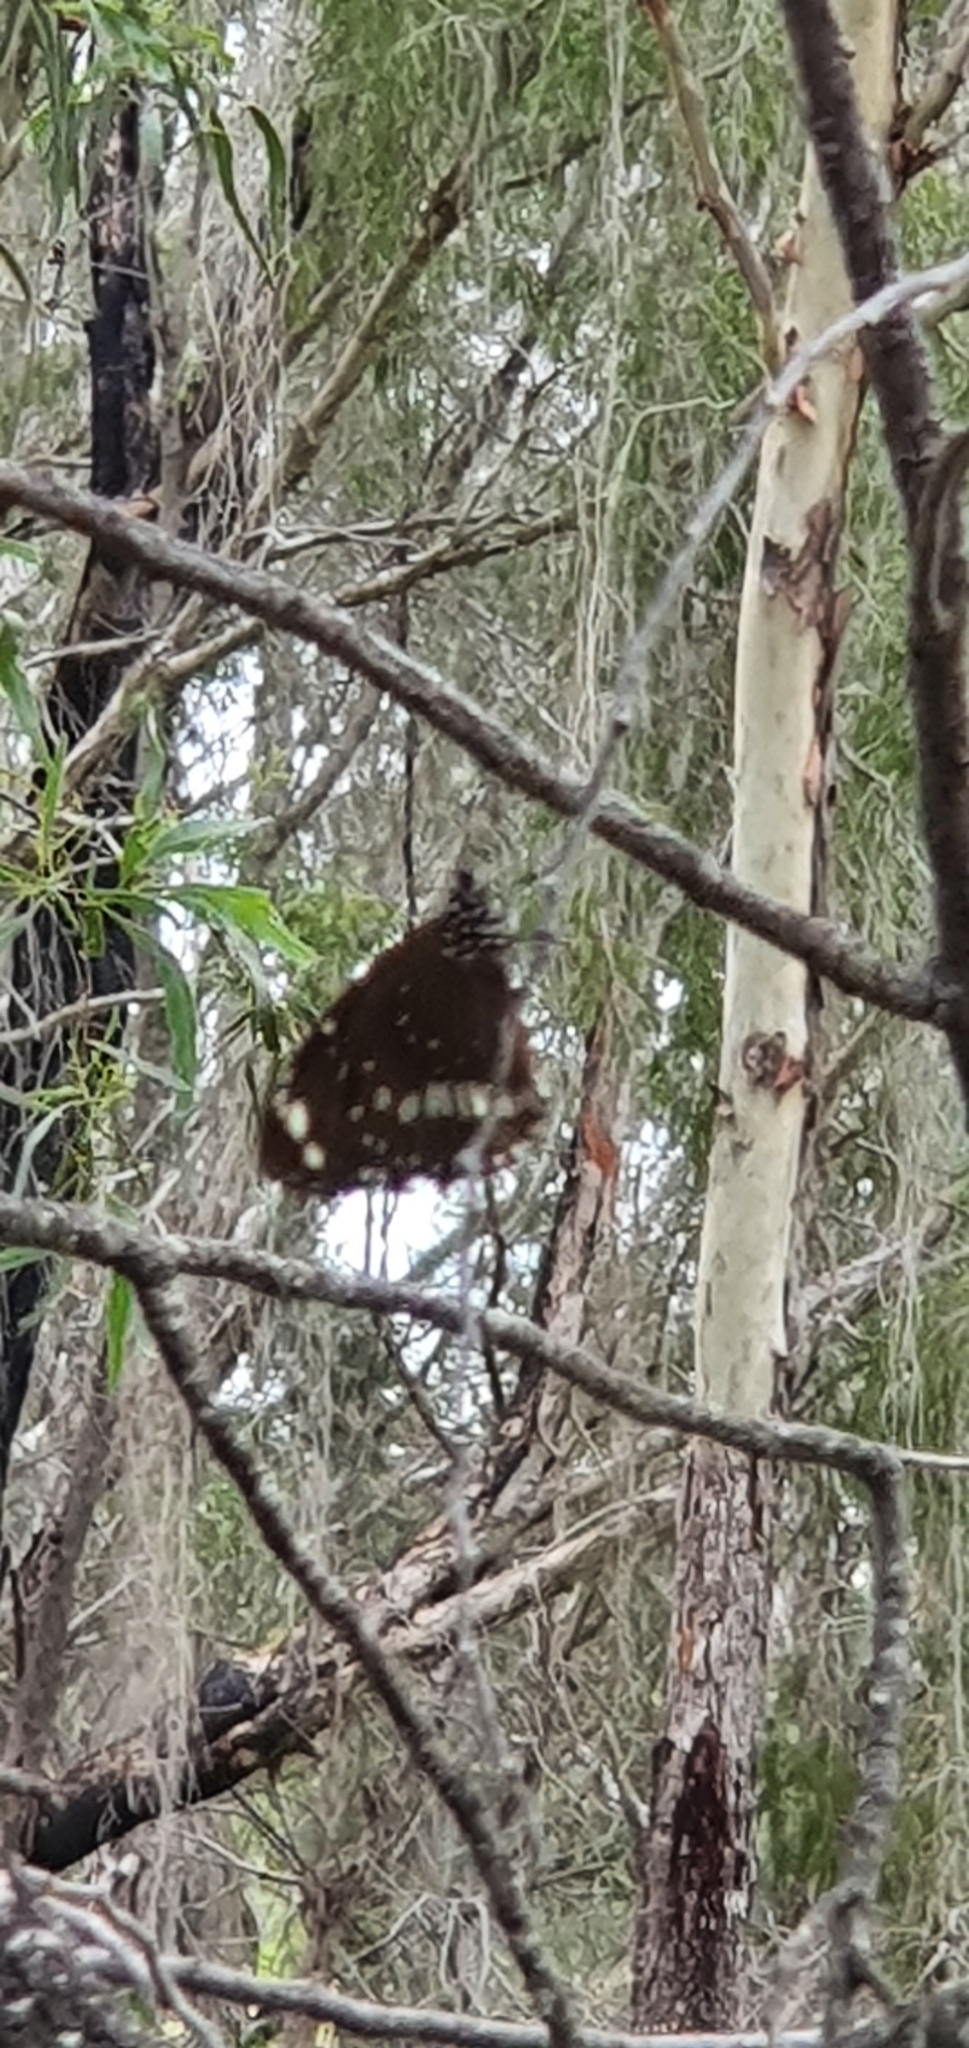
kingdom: Animalia
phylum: Arthropoda
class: Insecta
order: Lepidoptera
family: Nymphalidae
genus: Euploea
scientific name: Euploea core
